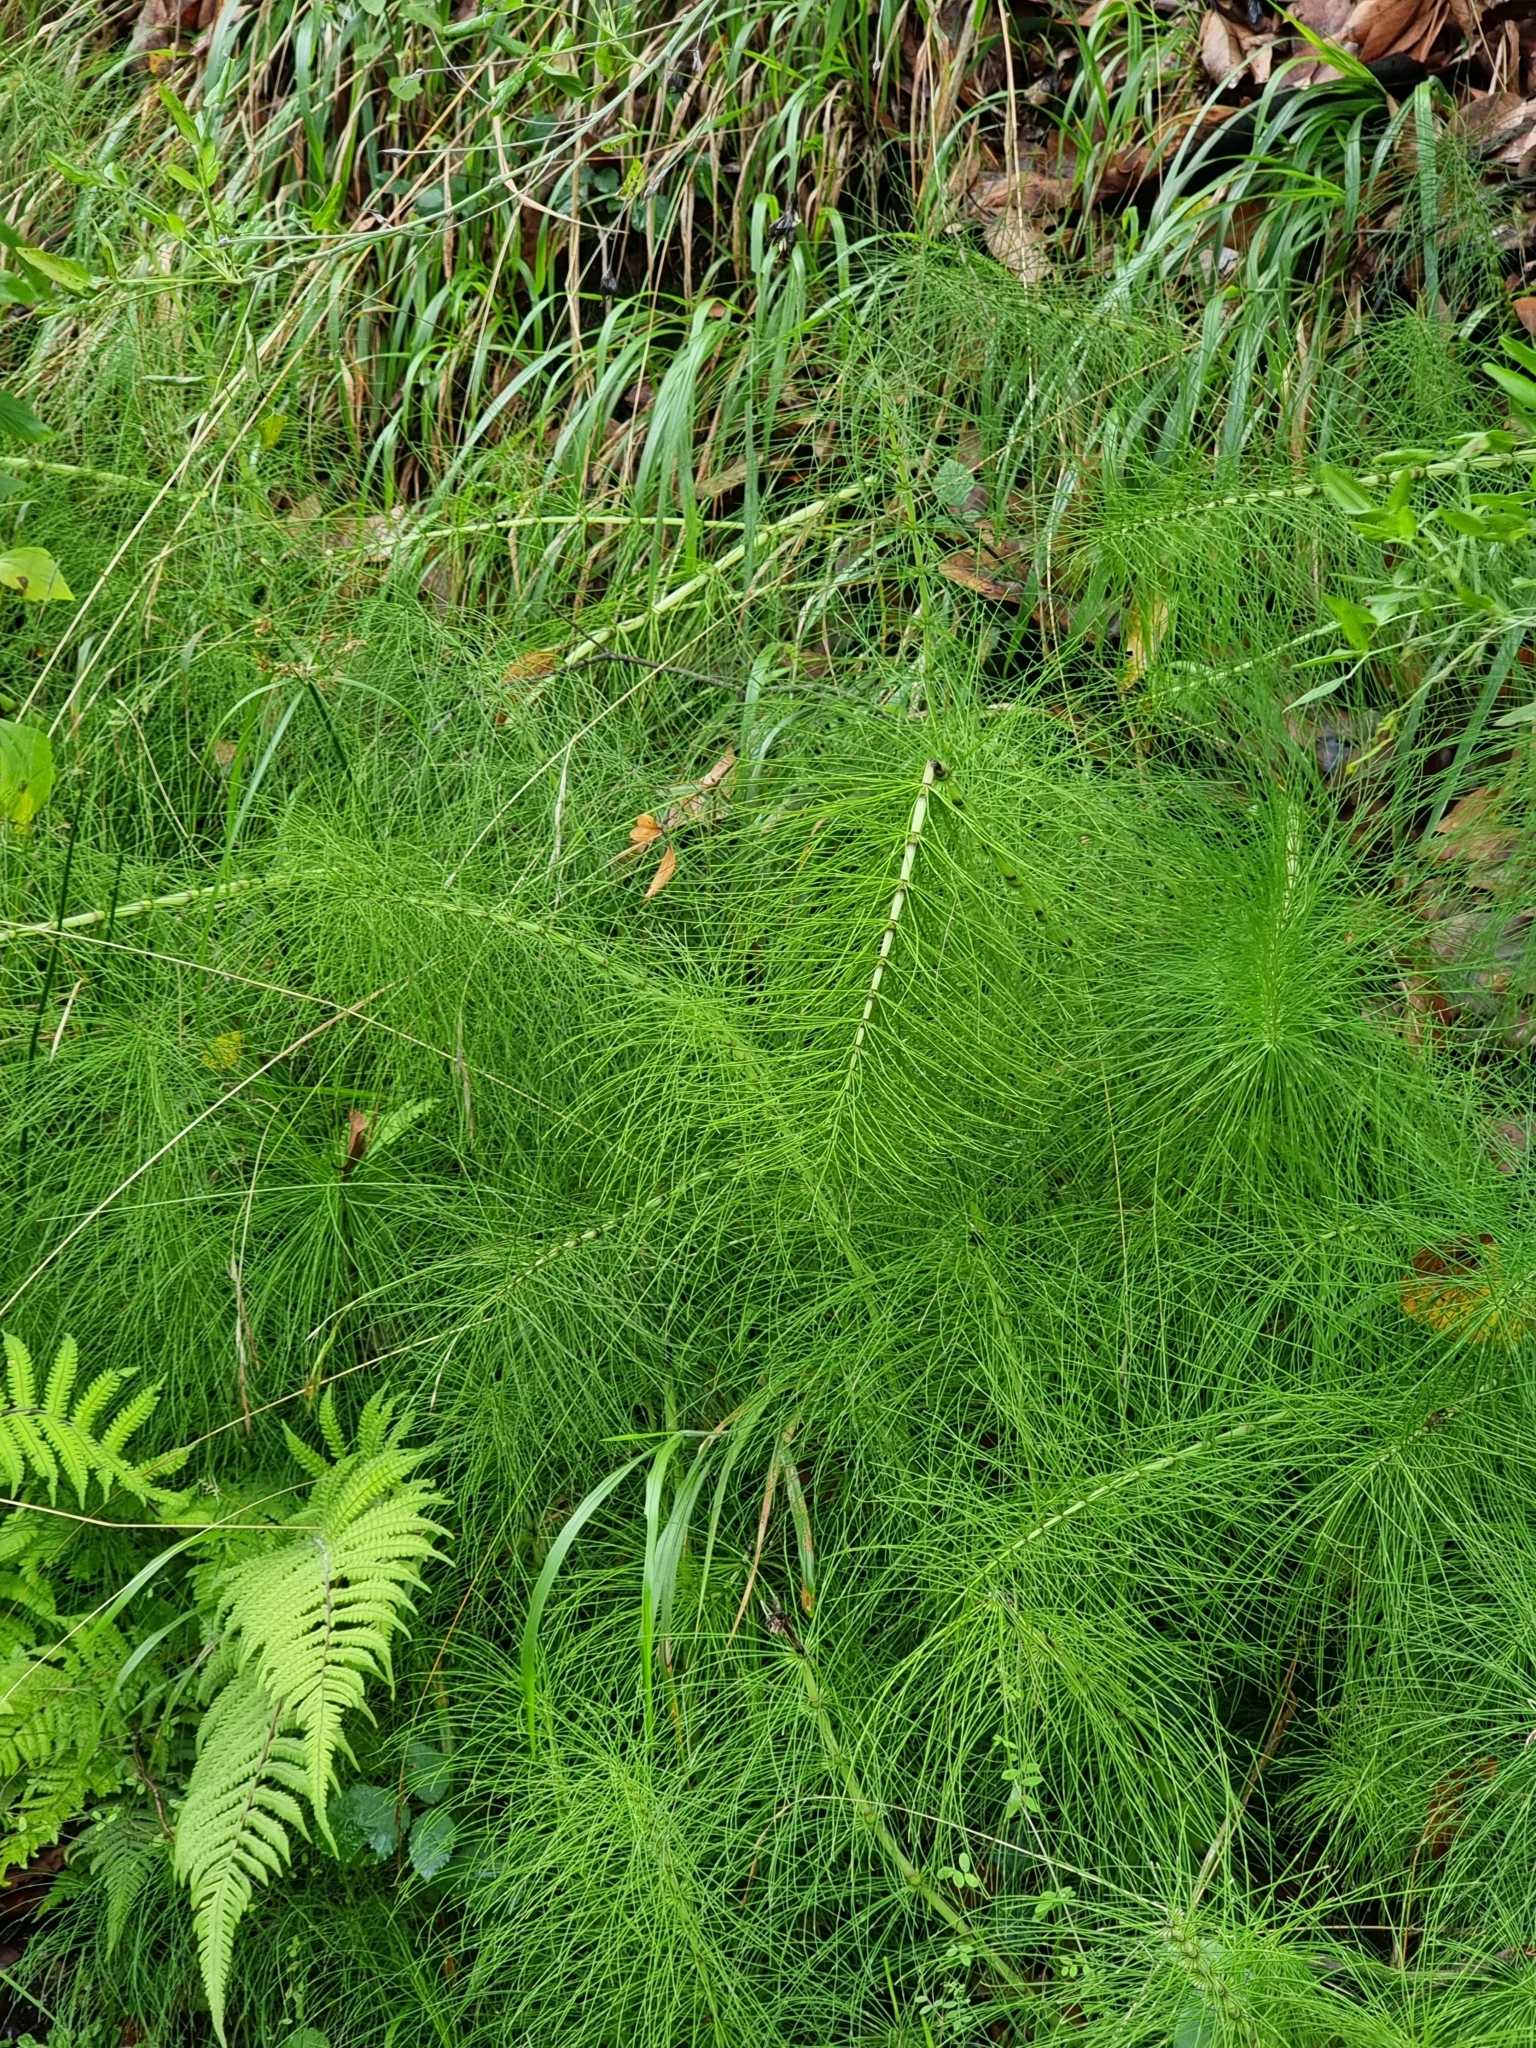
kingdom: Plantae
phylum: Tracheophyta
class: Polypodiopsida
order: Equisetales
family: Equisetaceae
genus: Equisetum
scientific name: Equisetum telmateia
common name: Great horsetail
